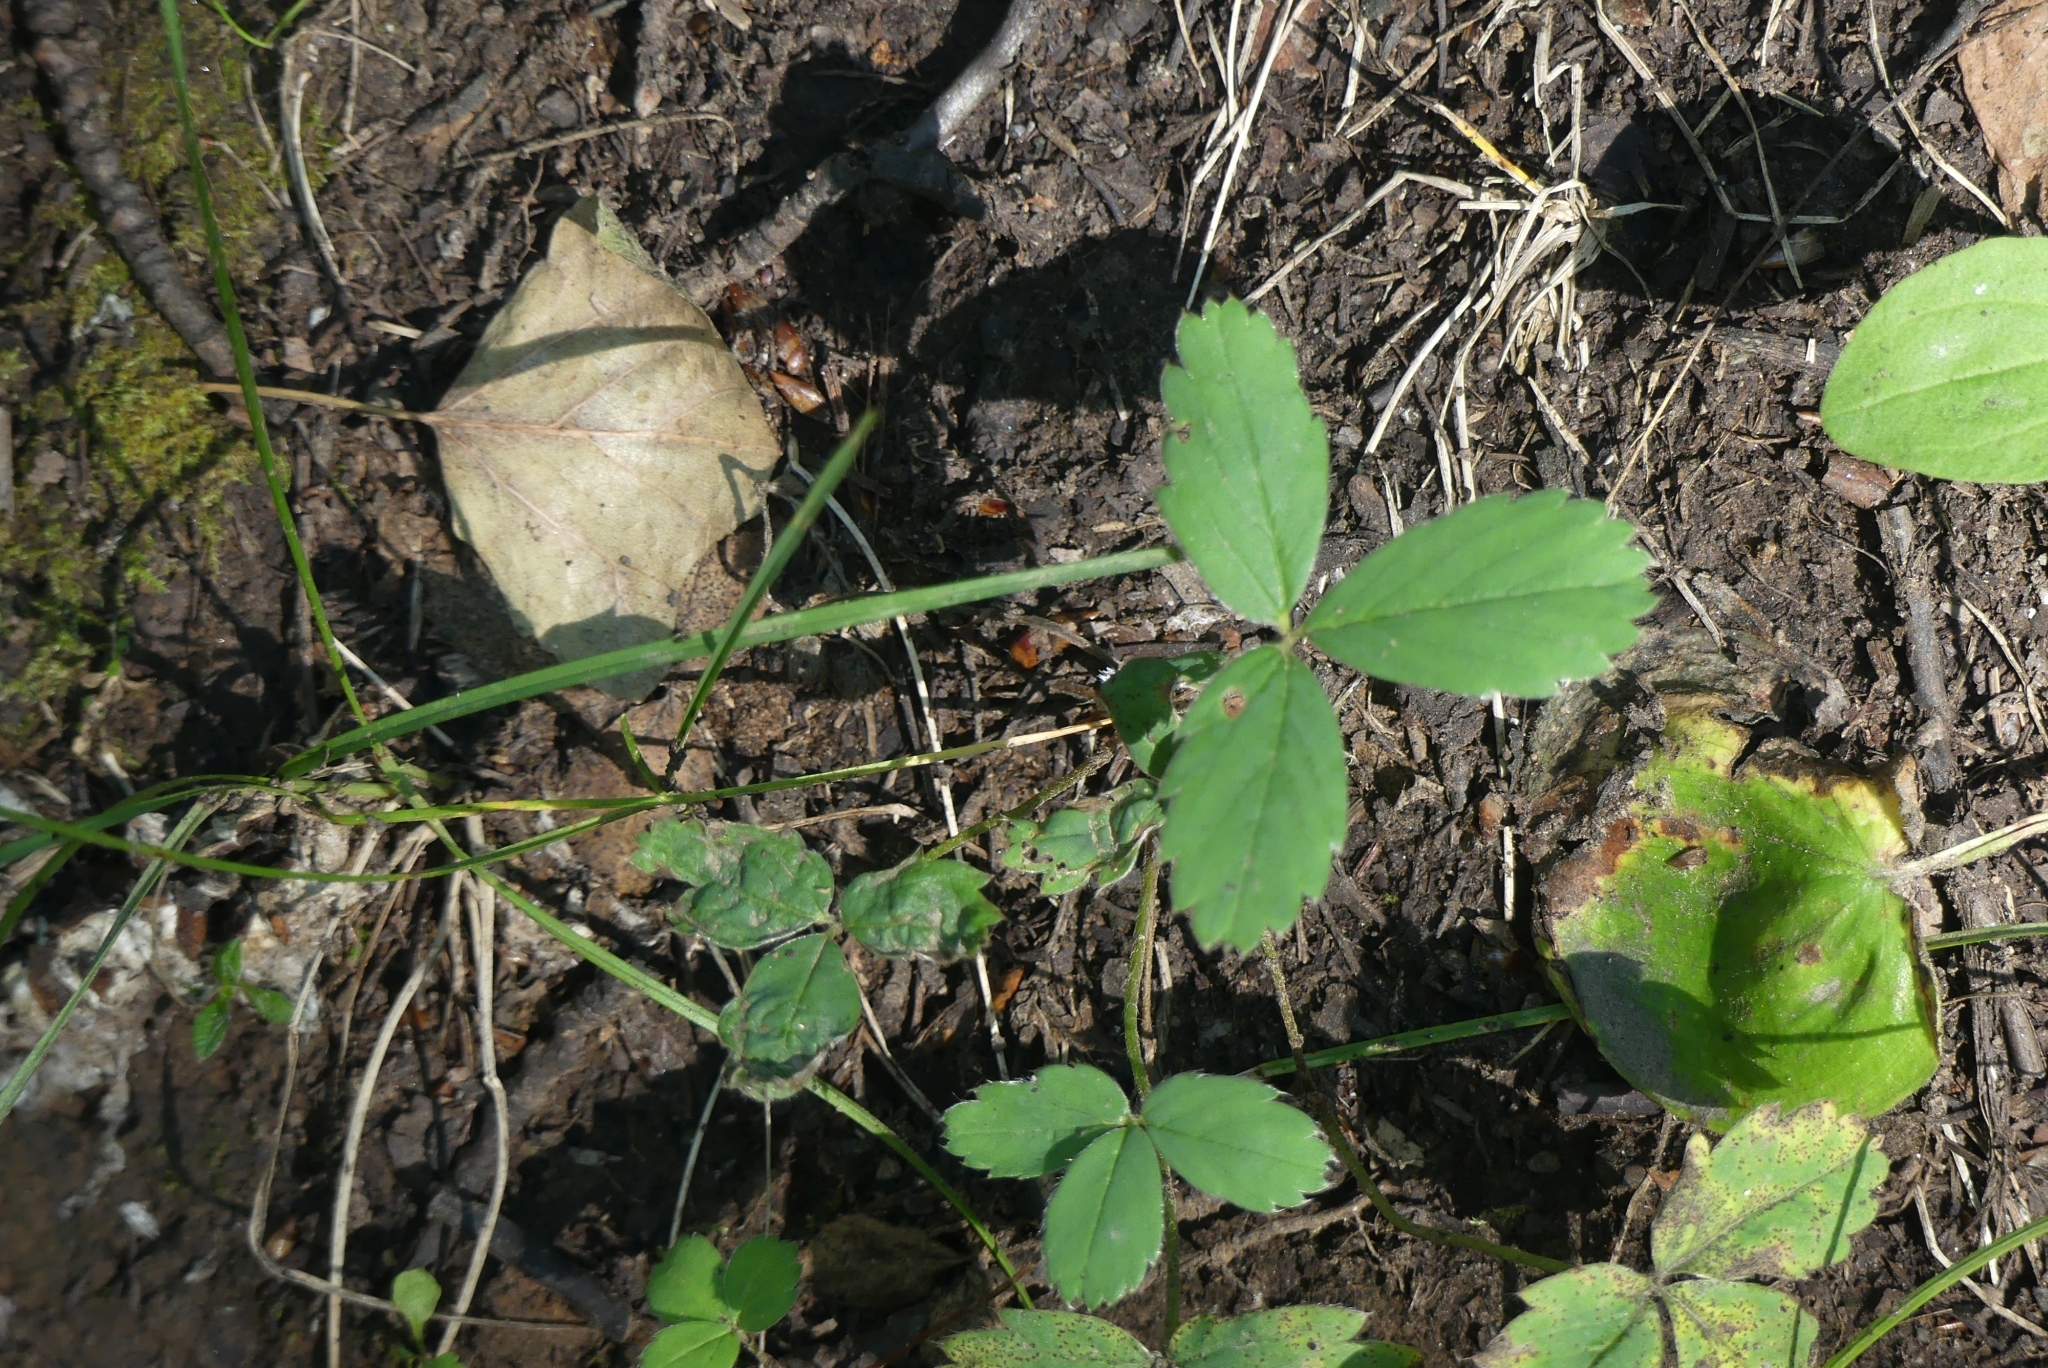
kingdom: Plantae
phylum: Tracheophyta
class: Magnoliopsida
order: Rosales
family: Rosaceae
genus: Fragaria
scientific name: Fragaria virginiana
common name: Thickleaved wild strawberry
